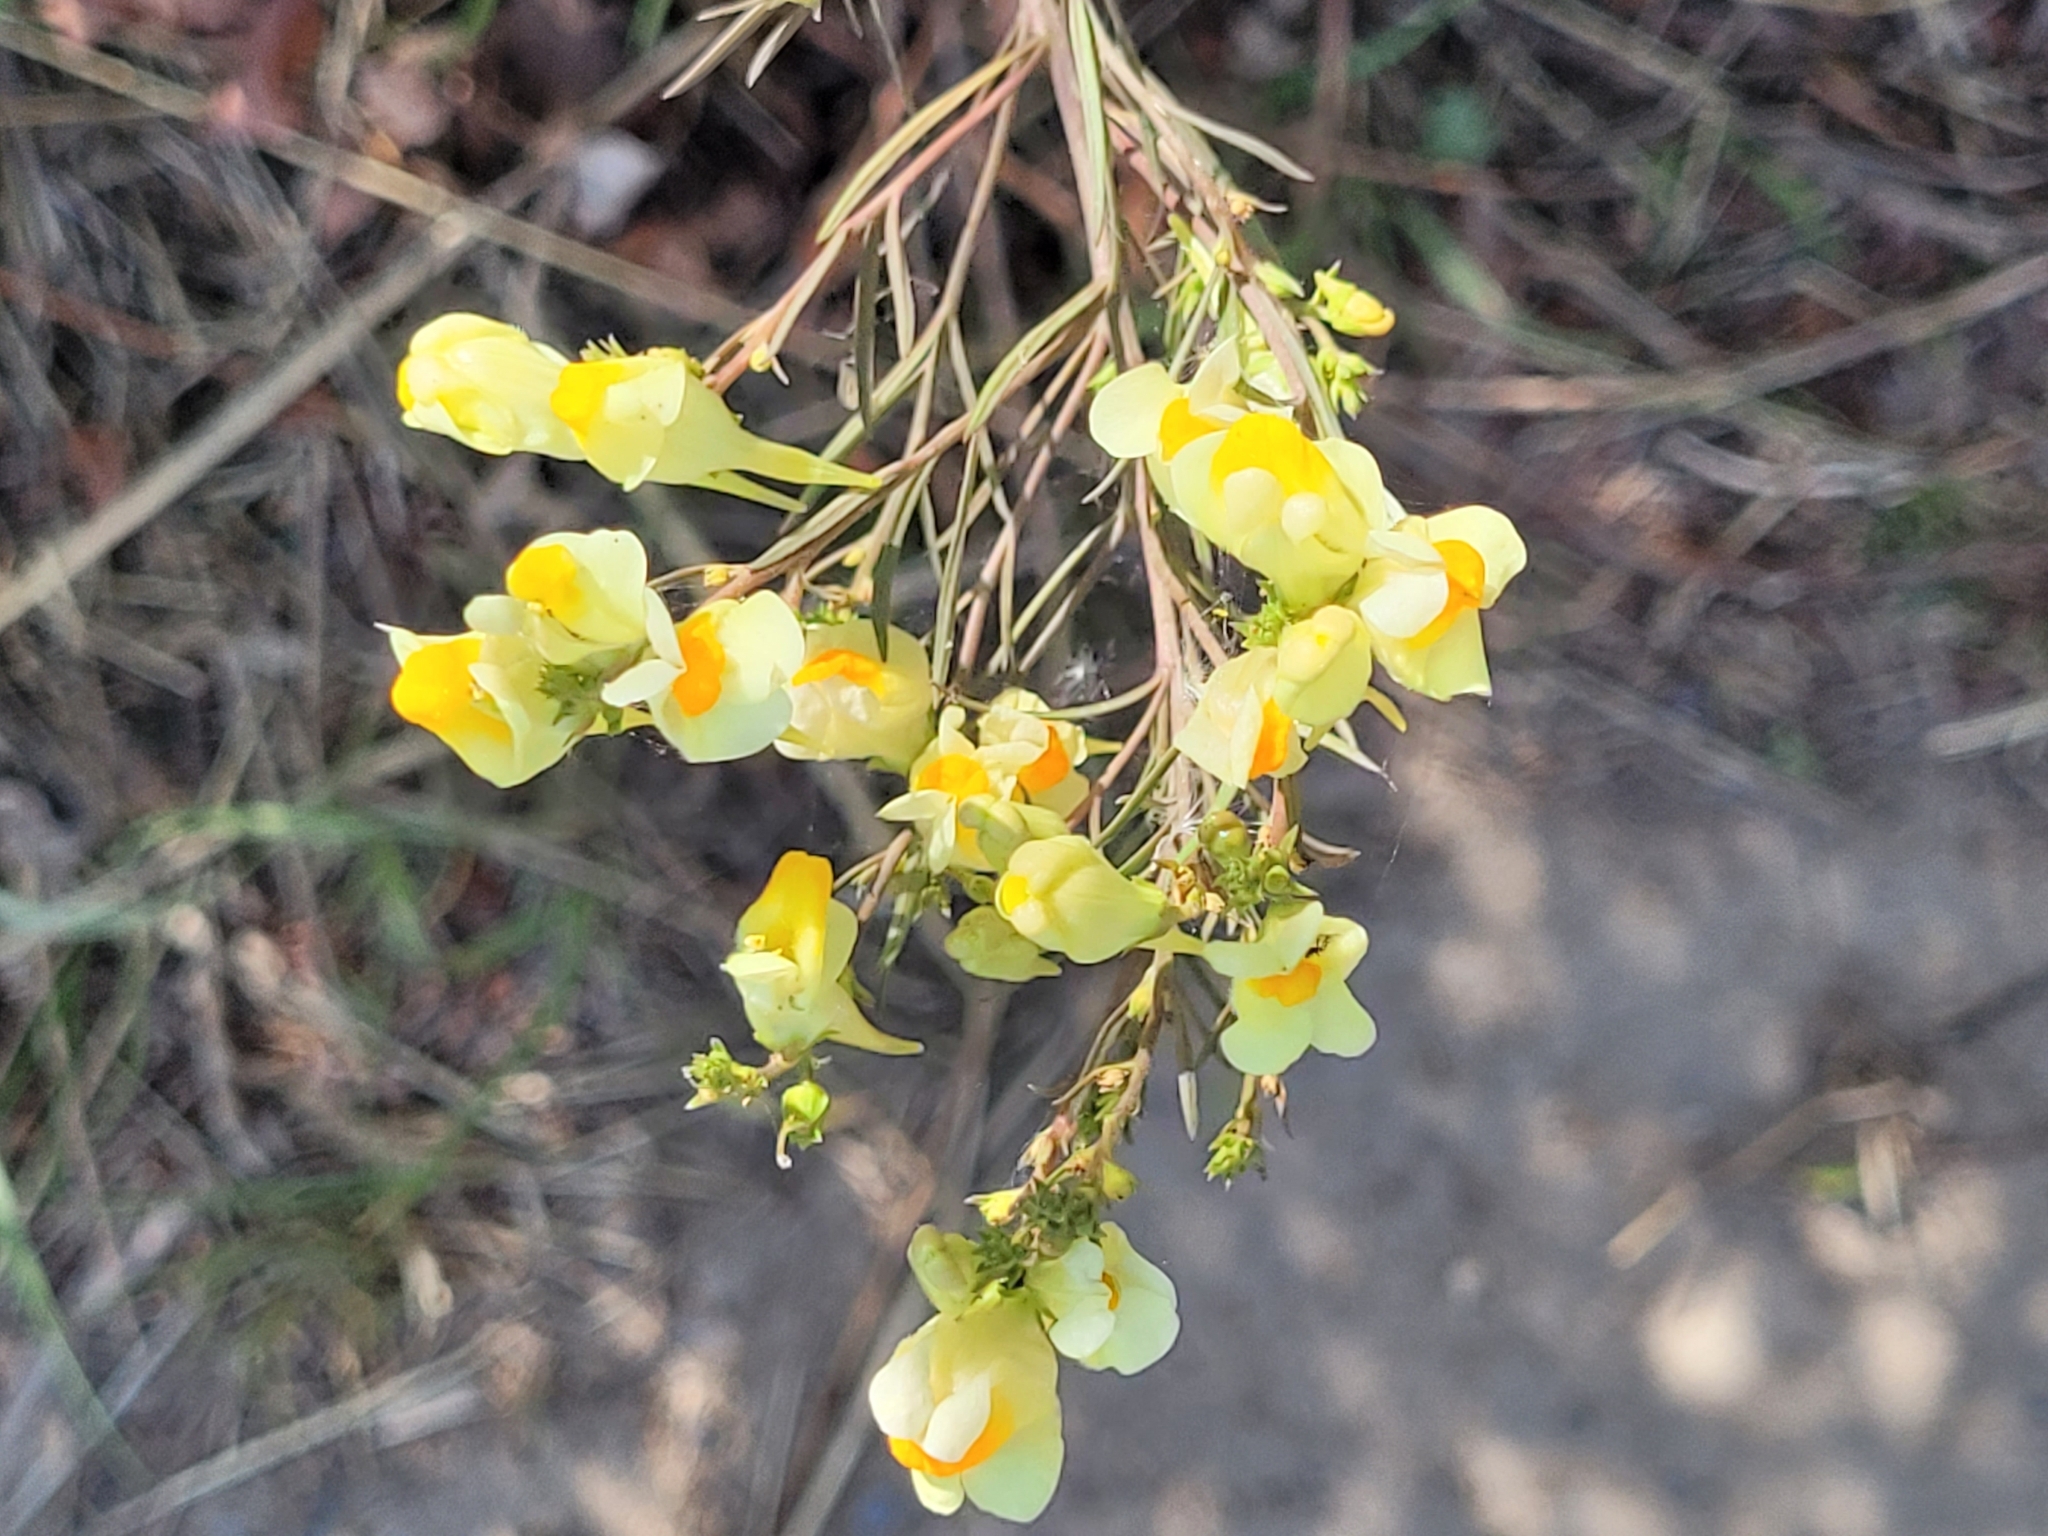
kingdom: Plantae
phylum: Tracheophyta
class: Magnoliopsida
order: Lamiales
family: Plantaginaceae
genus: Linaria
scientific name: Linaria vulgaris
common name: Butter and eggs
